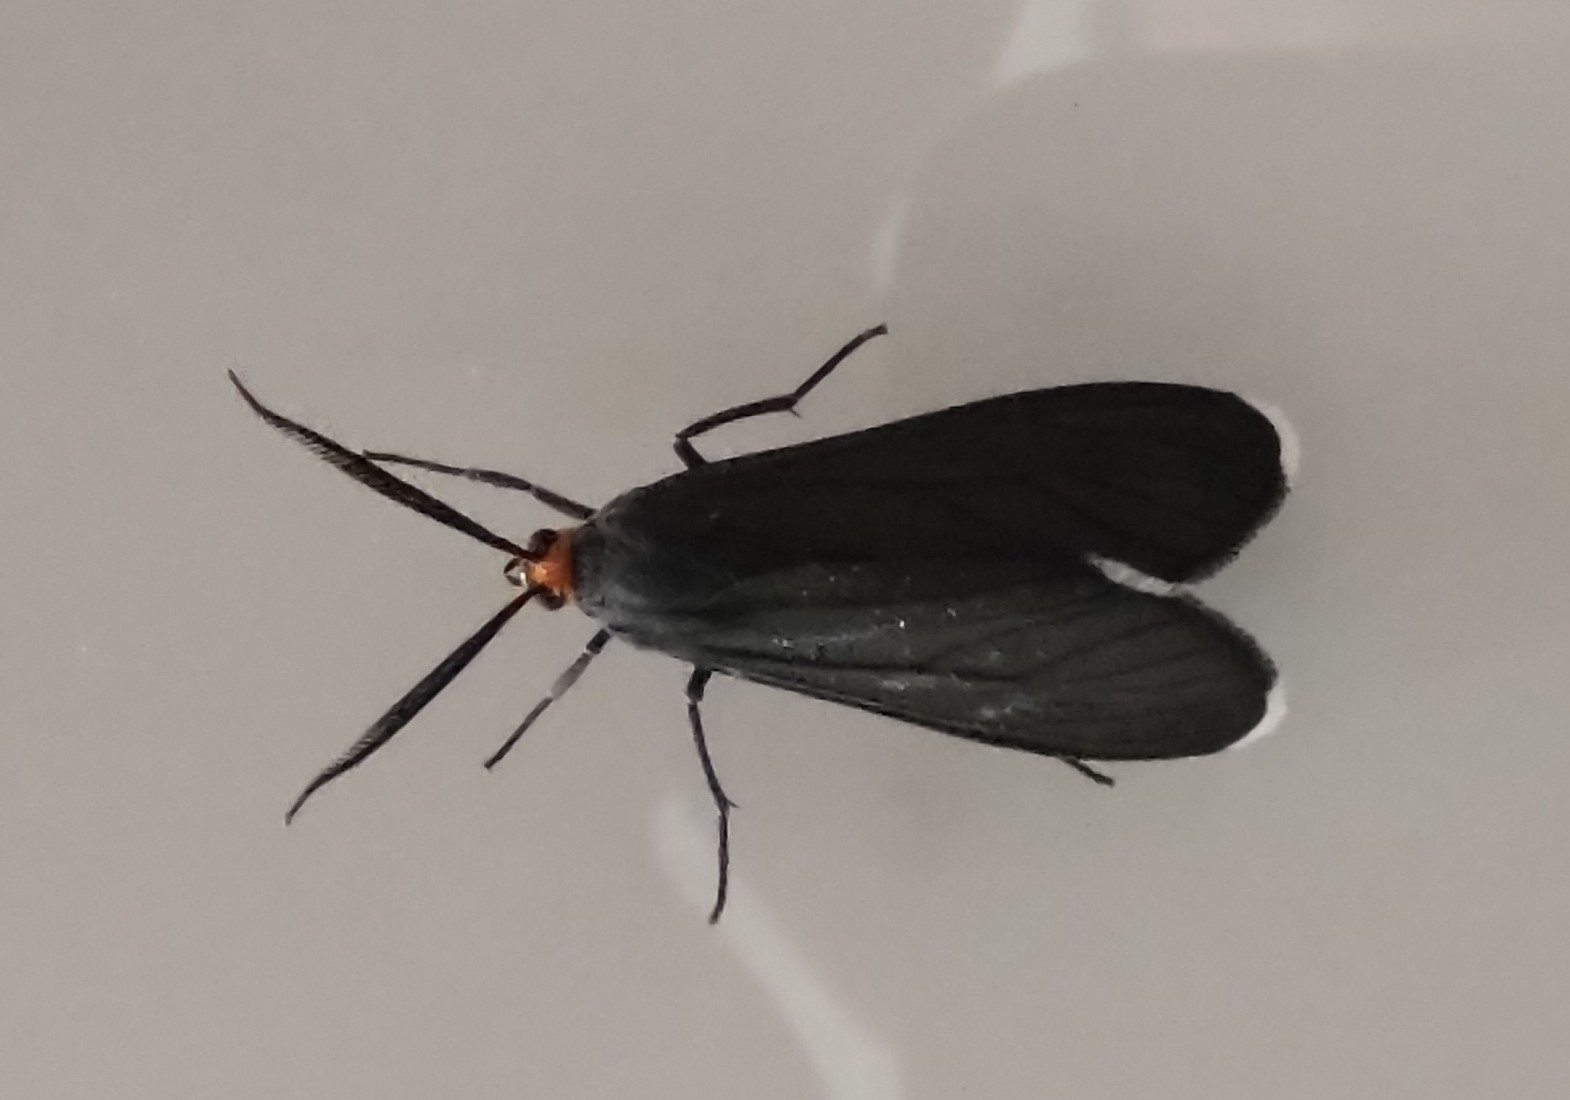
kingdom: Animalia
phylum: Arthropoda
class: Insecta
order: Lepidoptera
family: Erebidae
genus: Ctenucha
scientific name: Ctenucha rubriceps
